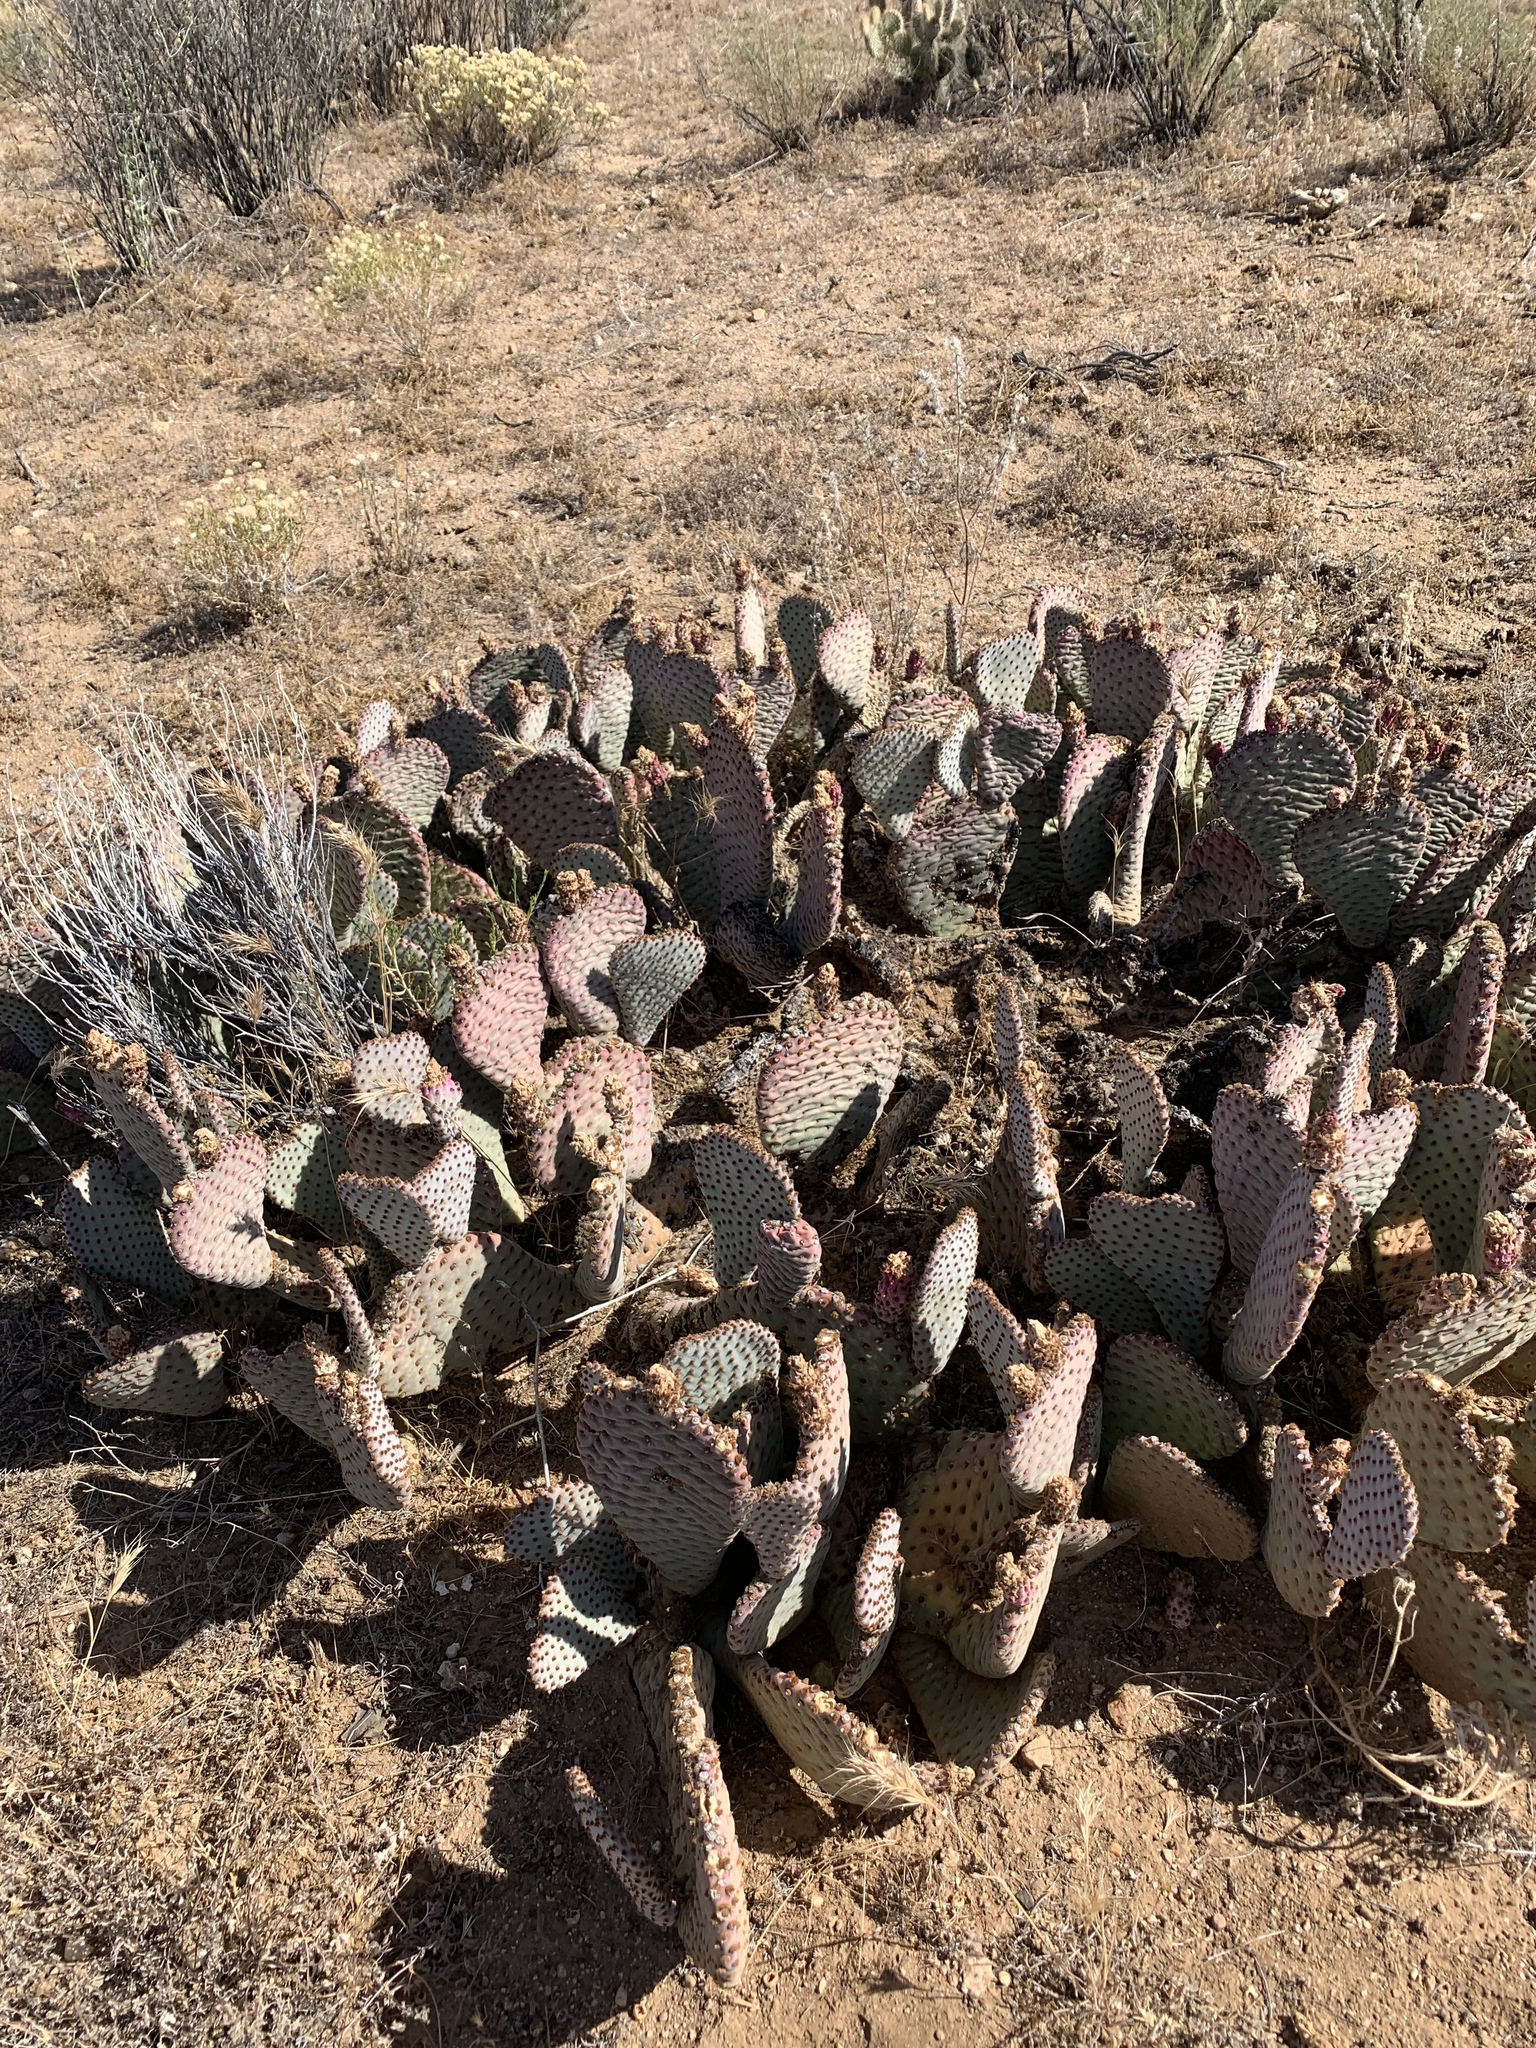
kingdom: Plantae
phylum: Tracheophyta
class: Magnoliopsida
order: Caryophyllales
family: Cactaceae
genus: Opuntia
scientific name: Opuntia basilaris
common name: Beavertail prickly-pear
